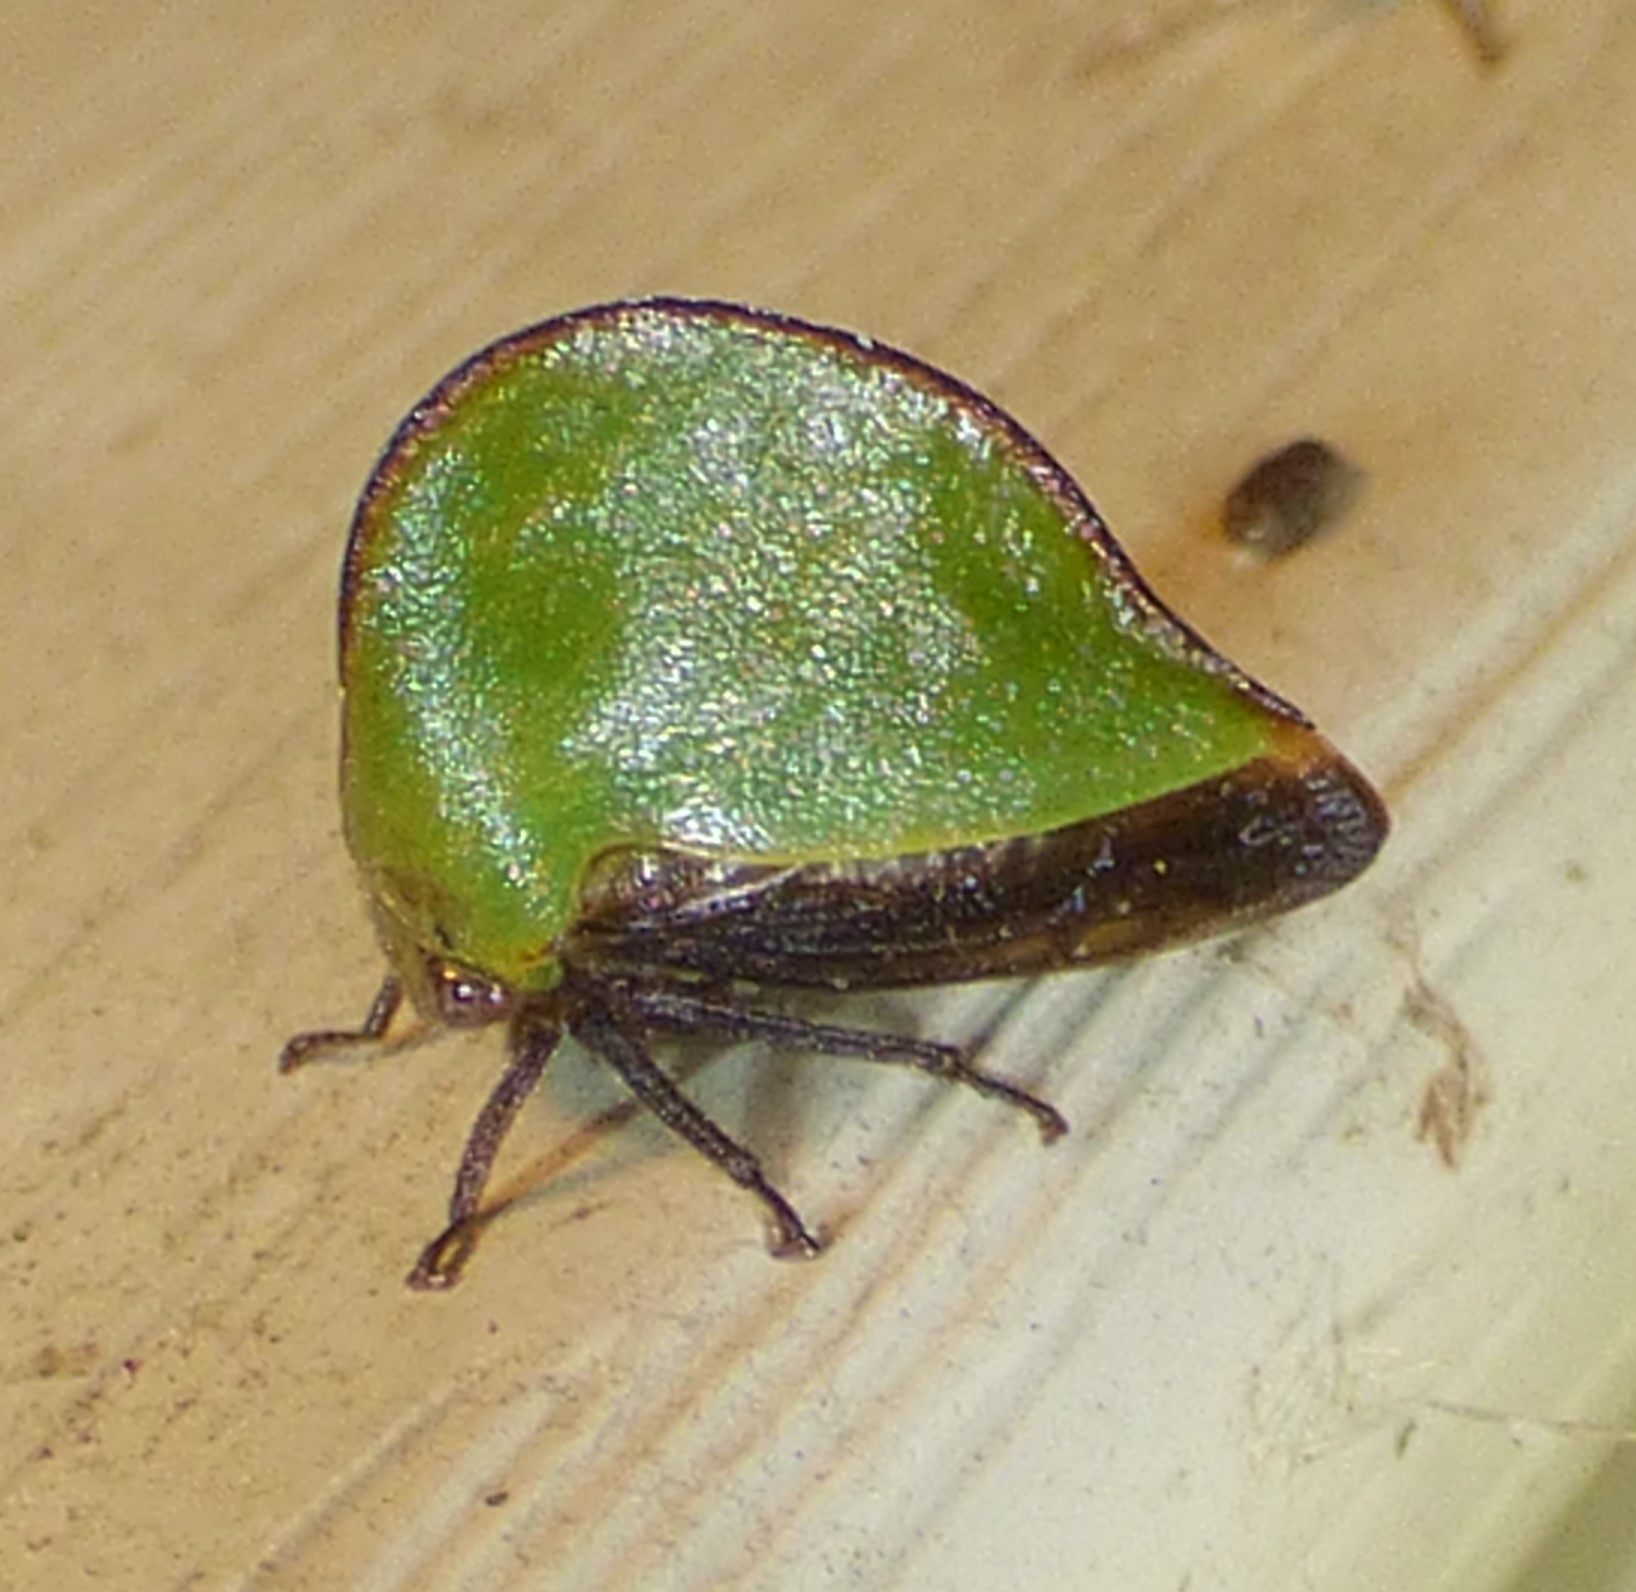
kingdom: Animalia
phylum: Arthropoda
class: Insecta
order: Hemiptera
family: Membracidae
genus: Archasia
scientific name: Archasia belfragei
